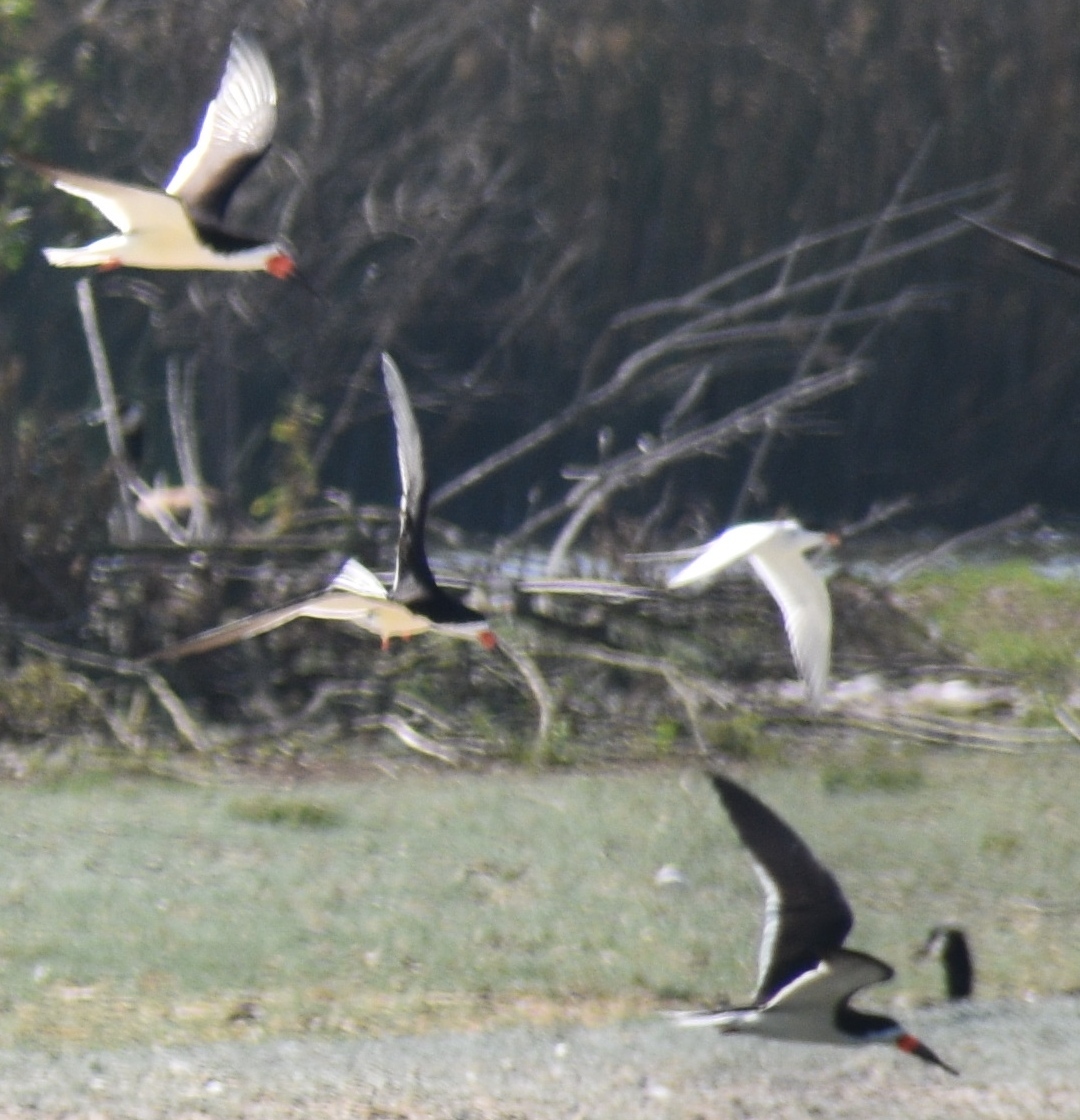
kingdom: Animalia
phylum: Chordata
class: Aves
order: Charadriiformes
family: Laridae
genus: Sterna
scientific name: Sterna forsteri
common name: Forster's tern
